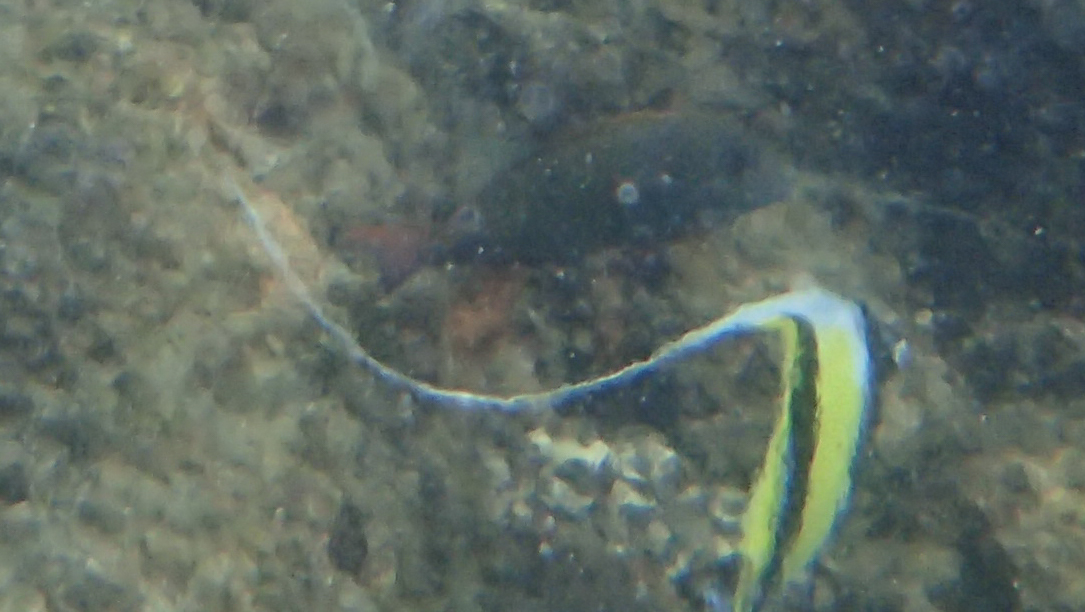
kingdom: Animalia
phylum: Chordata
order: Perciformes
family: Zanclidae
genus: Zanclus
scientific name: Zanclus cornutus
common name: Moorish idol
